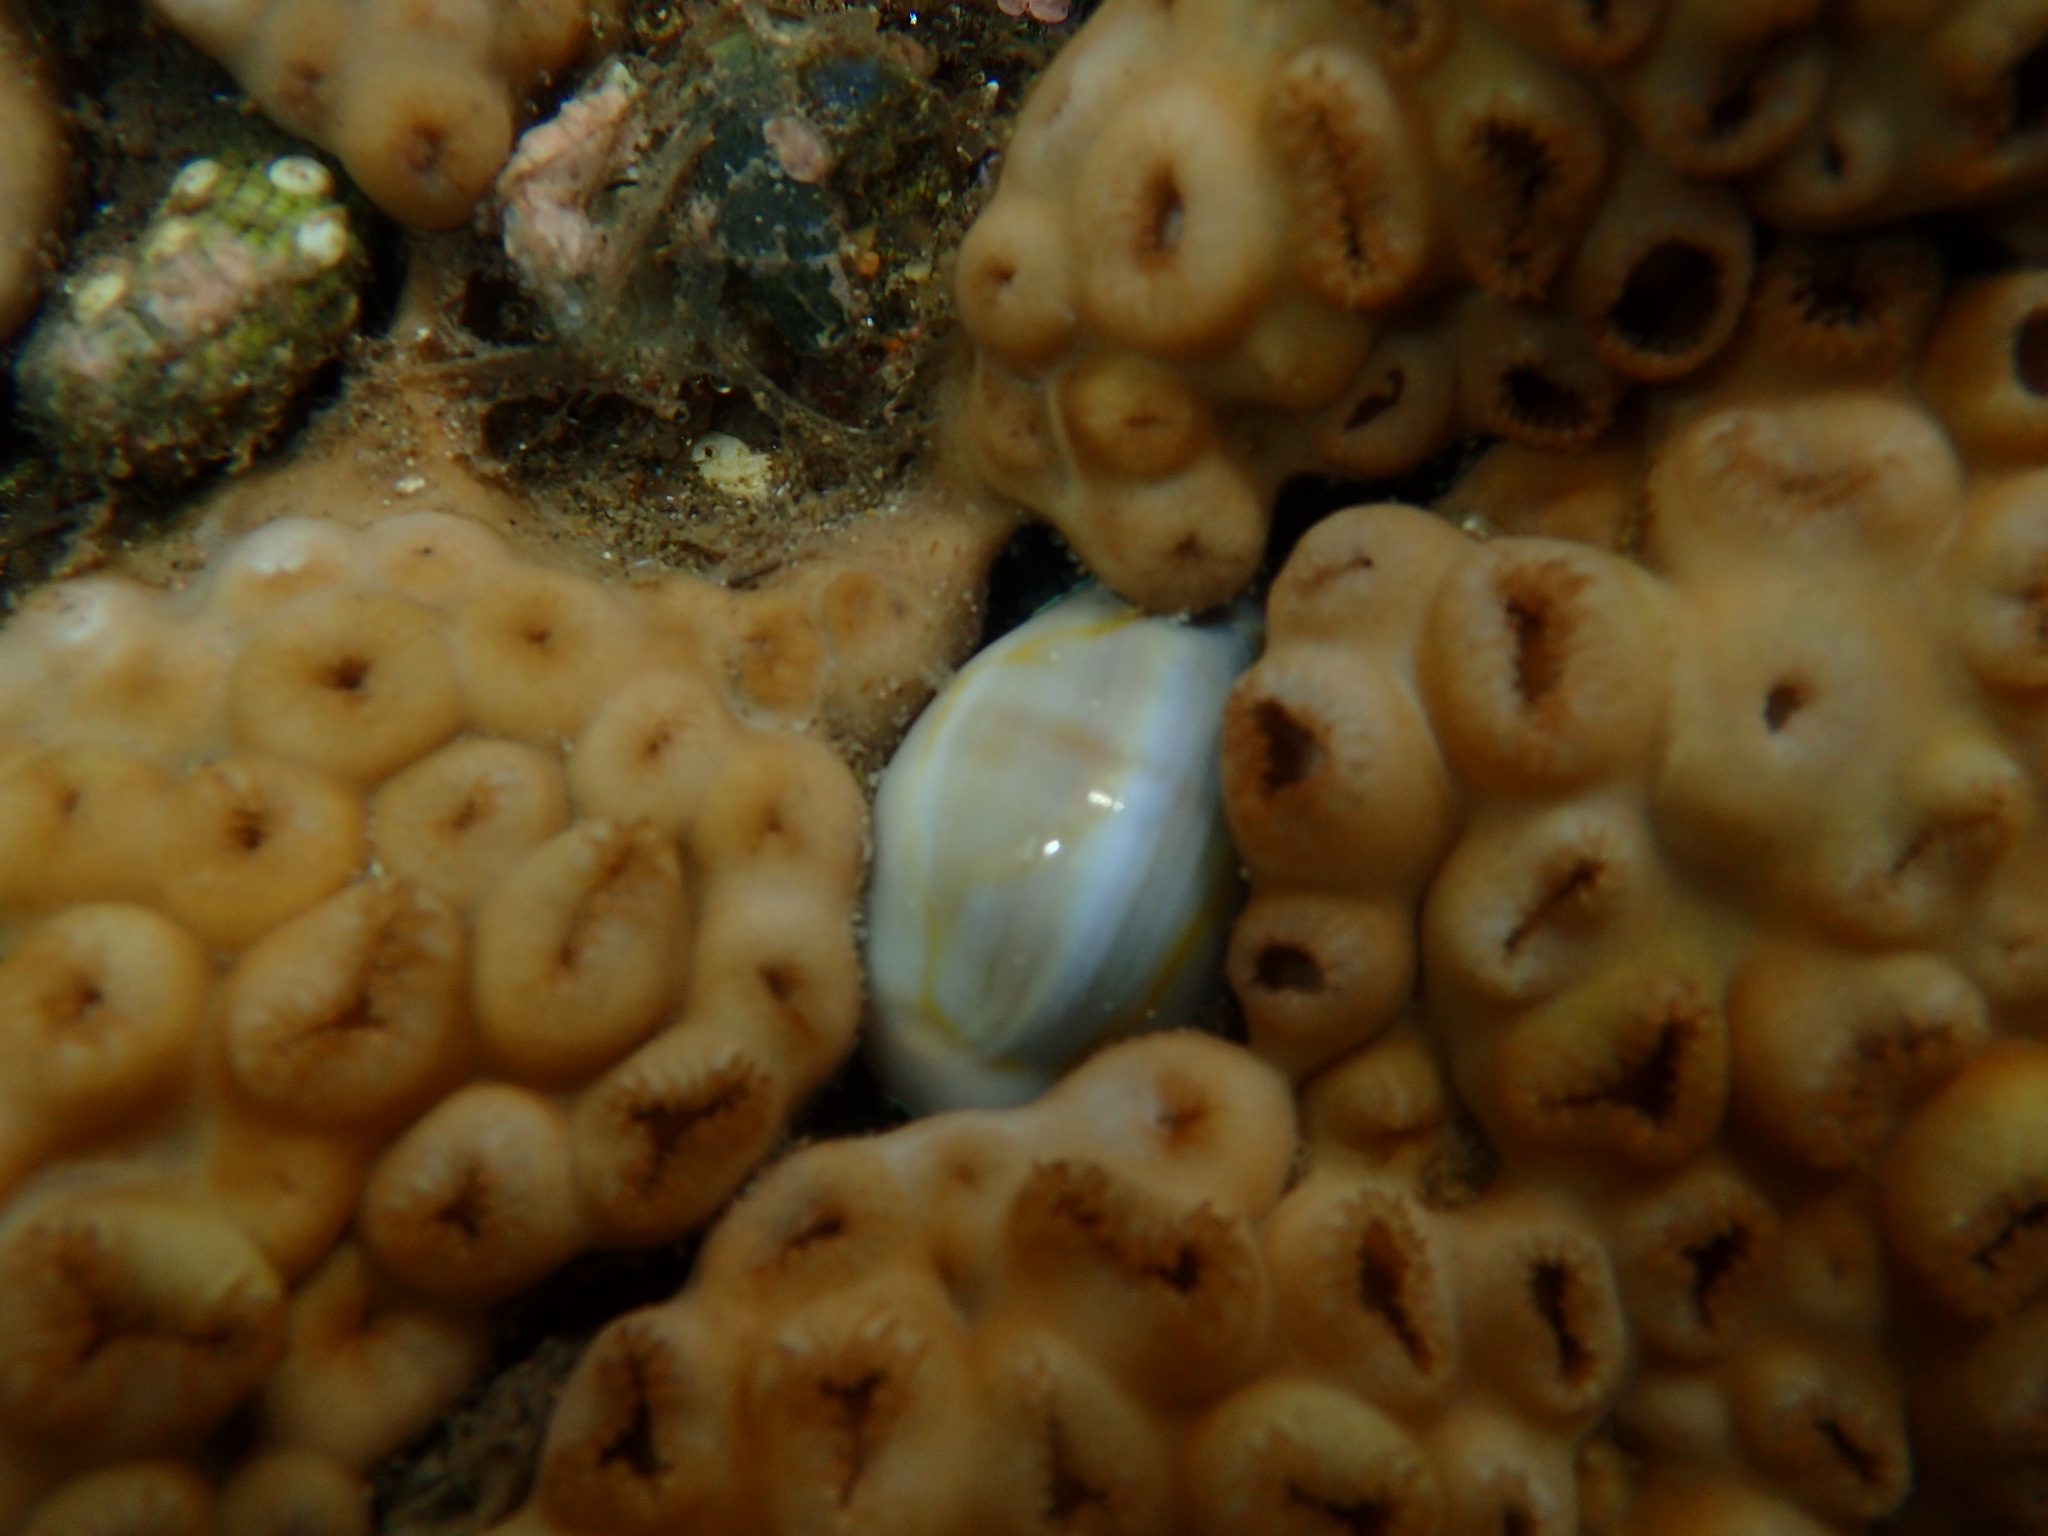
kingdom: Animalia
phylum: Mollusca
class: Gastropoda
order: Littorinimorpha
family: Cypraeidae
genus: Monetaria
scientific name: Monetaria annulus
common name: Ring cowrie
